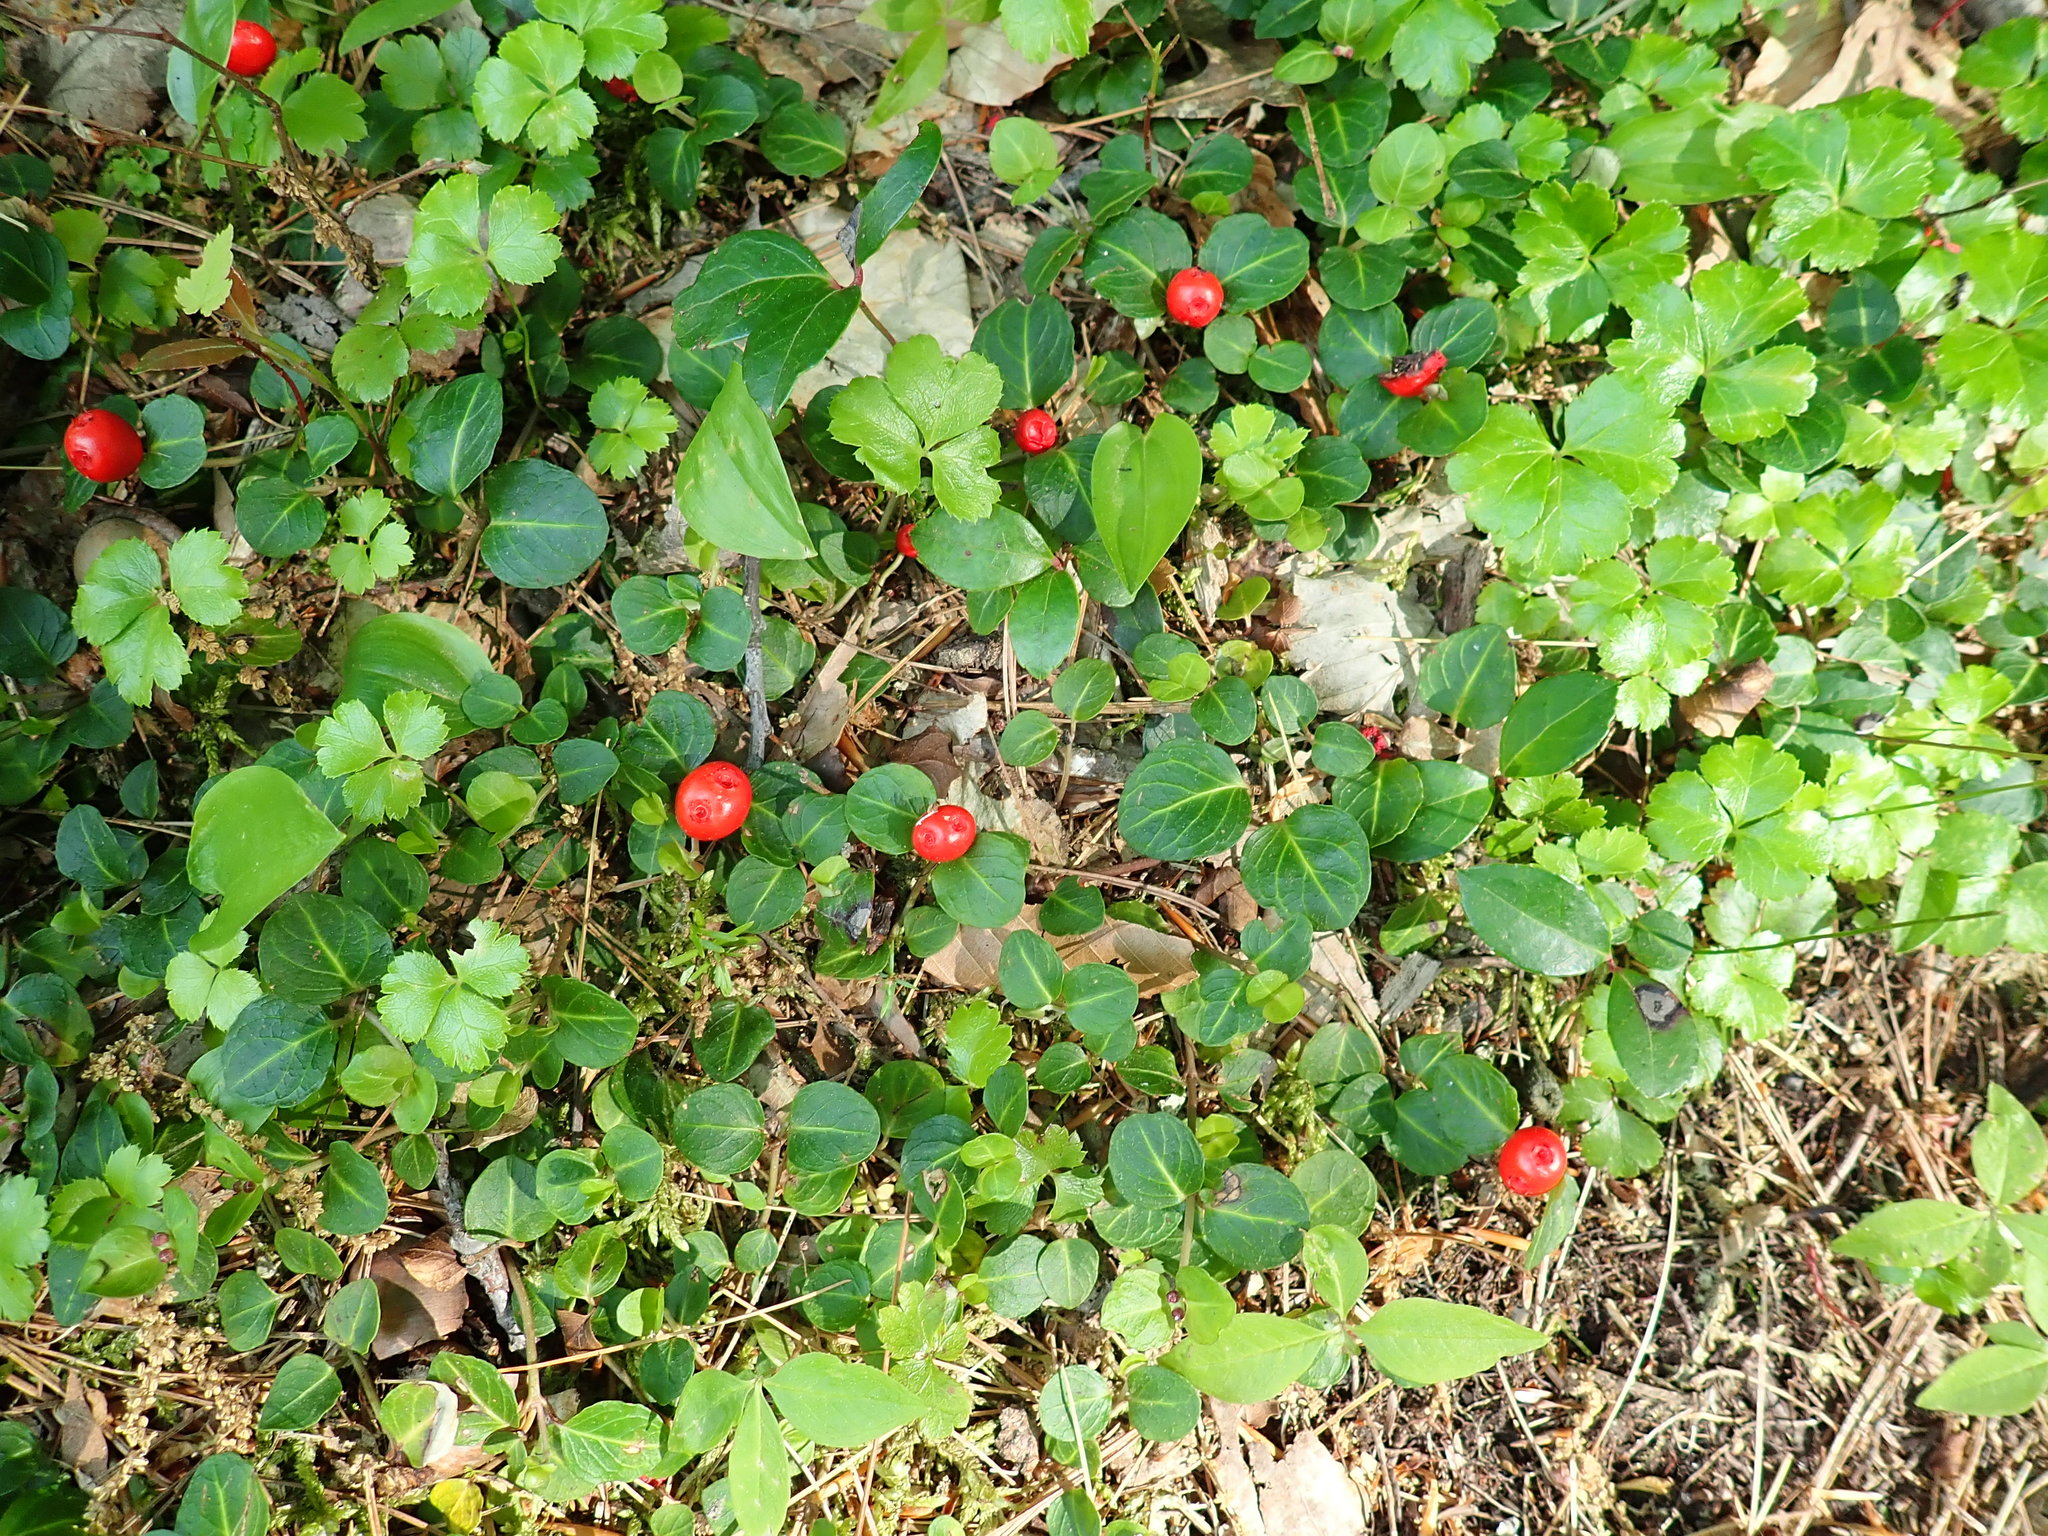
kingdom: Plantae
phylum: Tracheophyta
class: Magnoliopsida
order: Gentianales
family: Rubiaceae
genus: Mitchella
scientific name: Mitchella repens
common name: Partridge-berry
